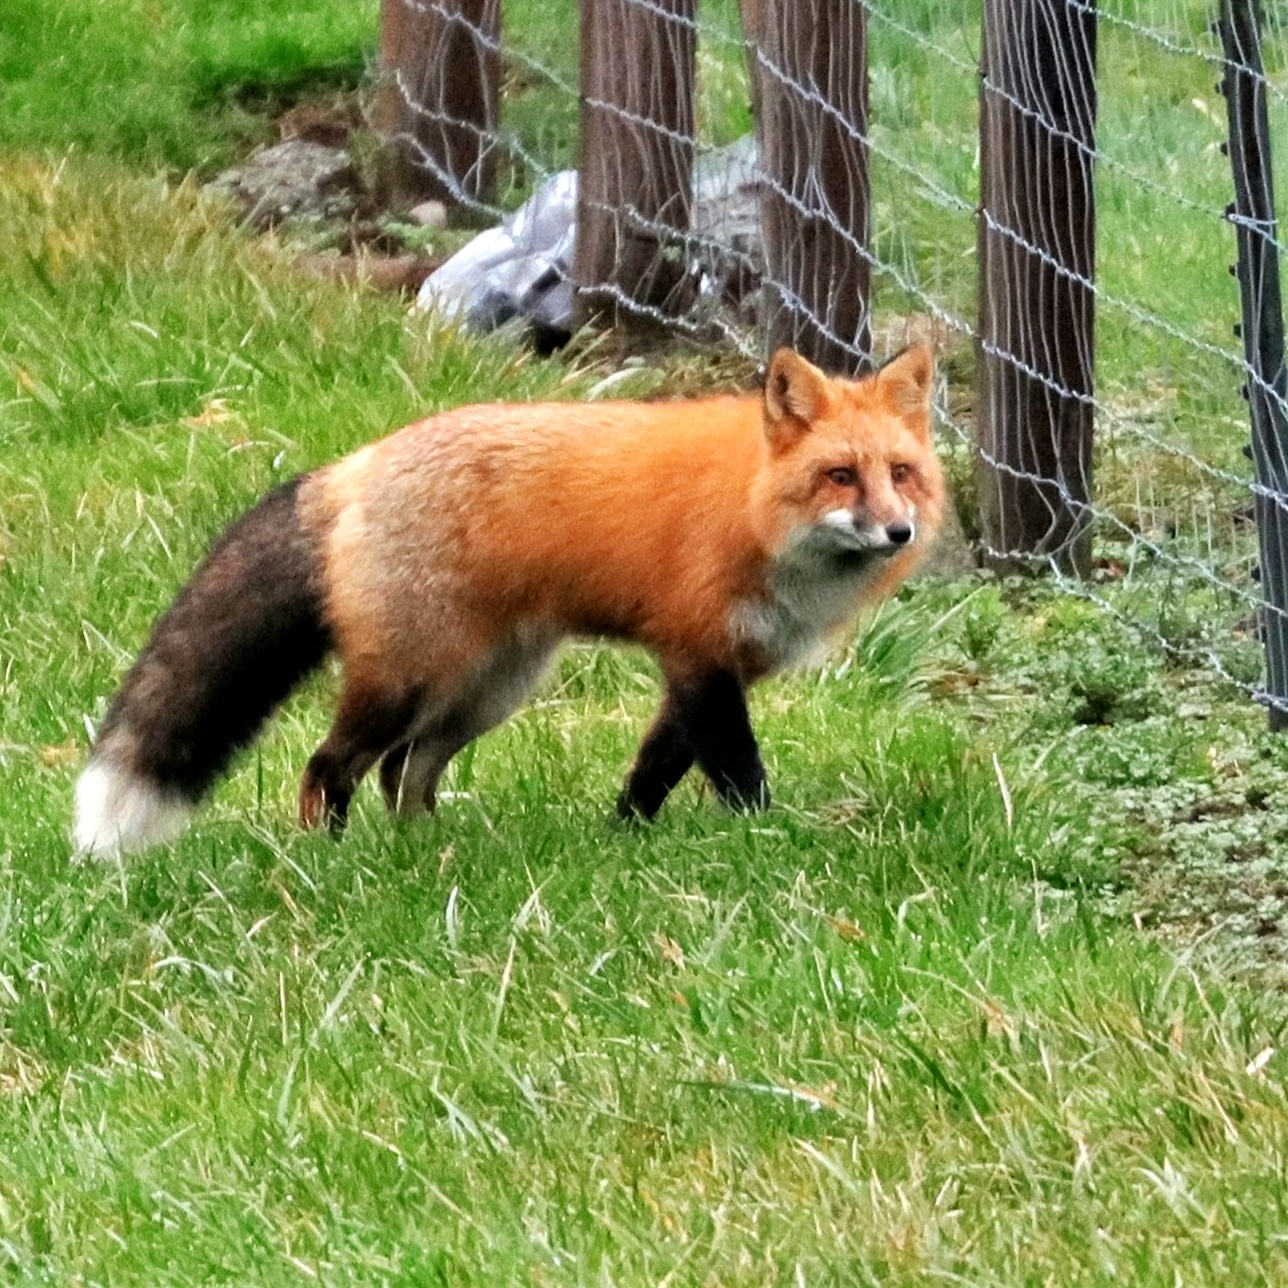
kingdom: Animalia
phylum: Chordata
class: Mammalia
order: Carnivora
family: Canidae
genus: Vulpes
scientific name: Vulpes vulpes
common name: Red fox
